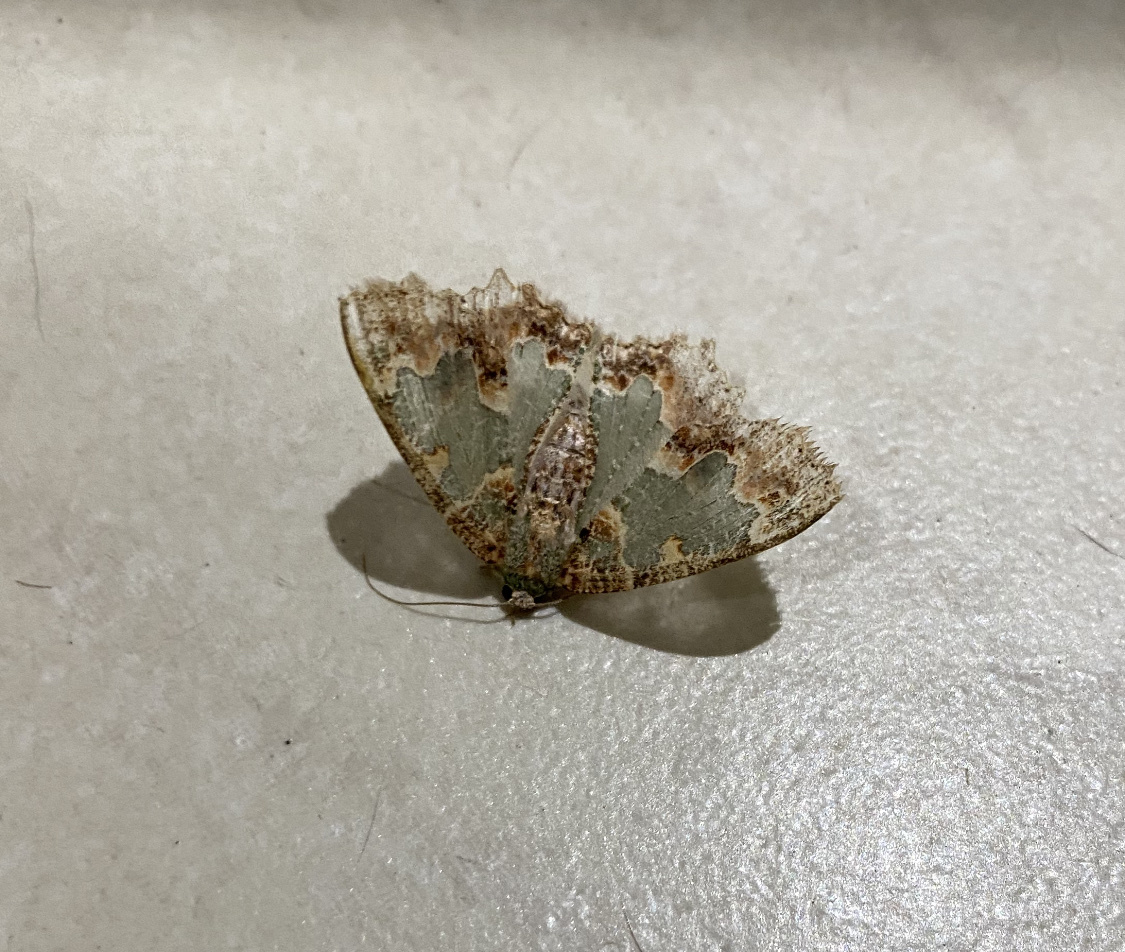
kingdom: Animalia
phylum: Arthropoda
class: Insecta
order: Lepidoptera
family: Geometridae
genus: Eucyclodes
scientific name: Eucyclodes pieroides
